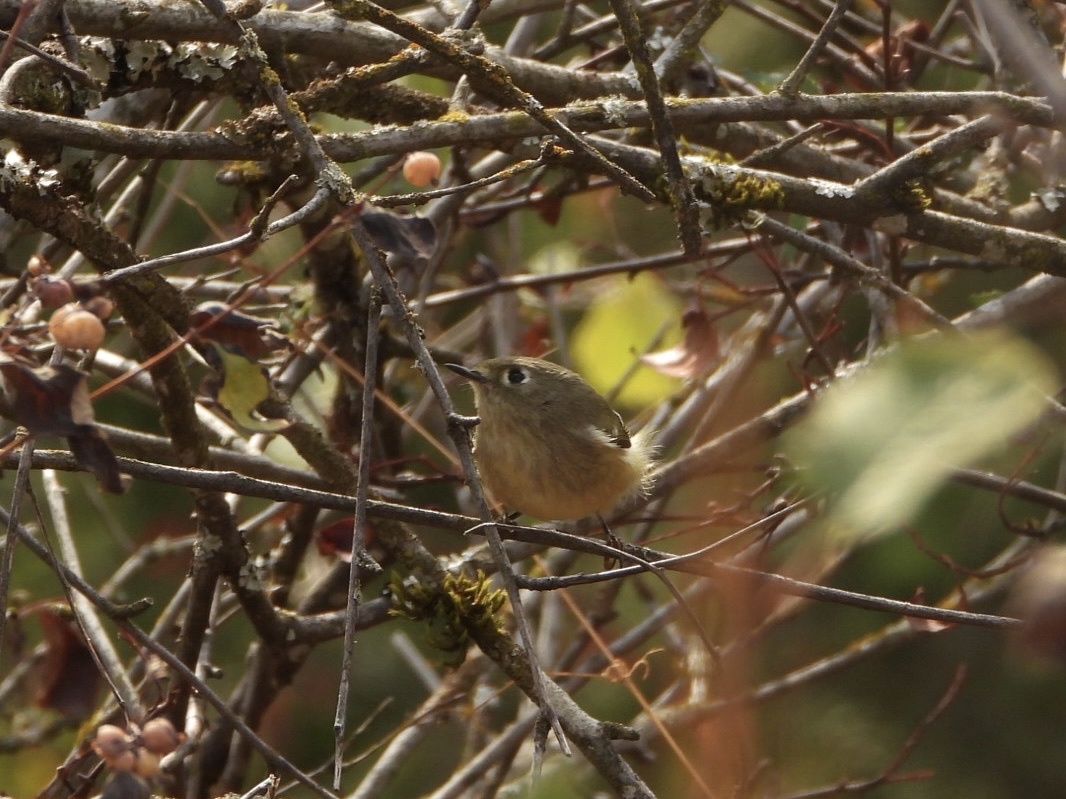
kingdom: Animalia
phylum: Chordata
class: Aves
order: Passeriformes
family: Regulidae
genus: Regulus
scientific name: Regulus calendula
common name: Ruby-crowned kinglet
